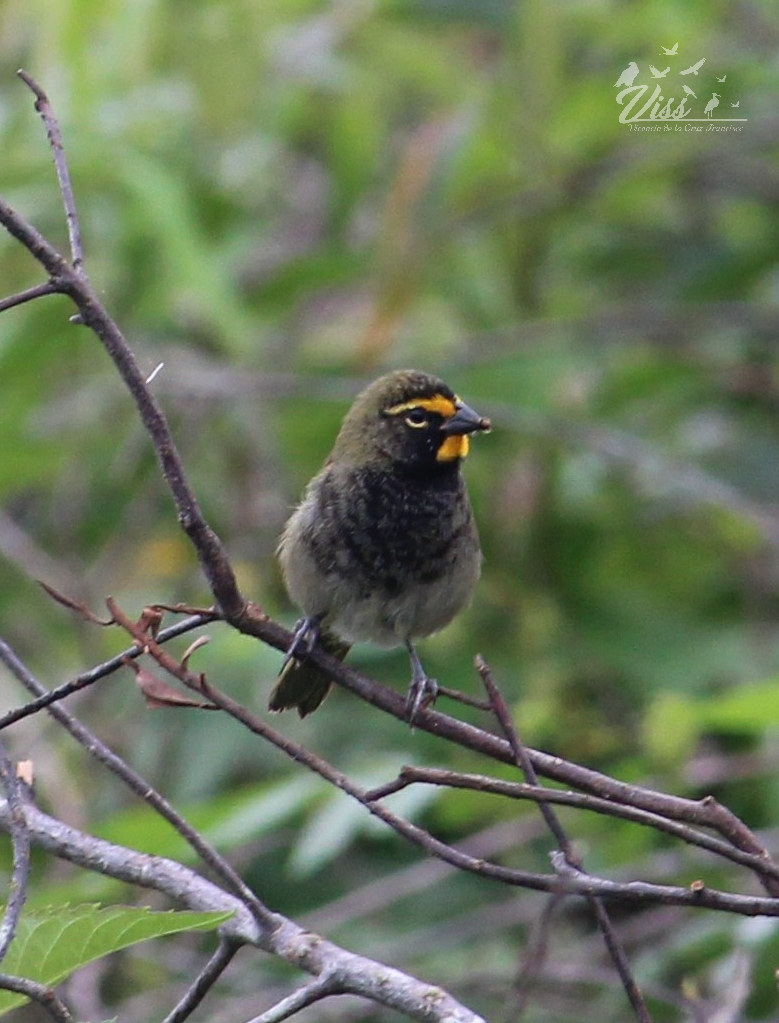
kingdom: Animalia
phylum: Chordata
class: Aves
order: Passeriformes
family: Thraupidae
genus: Tiaris
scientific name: Tiaris olivaceus
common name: Yellow-faced grassquit
